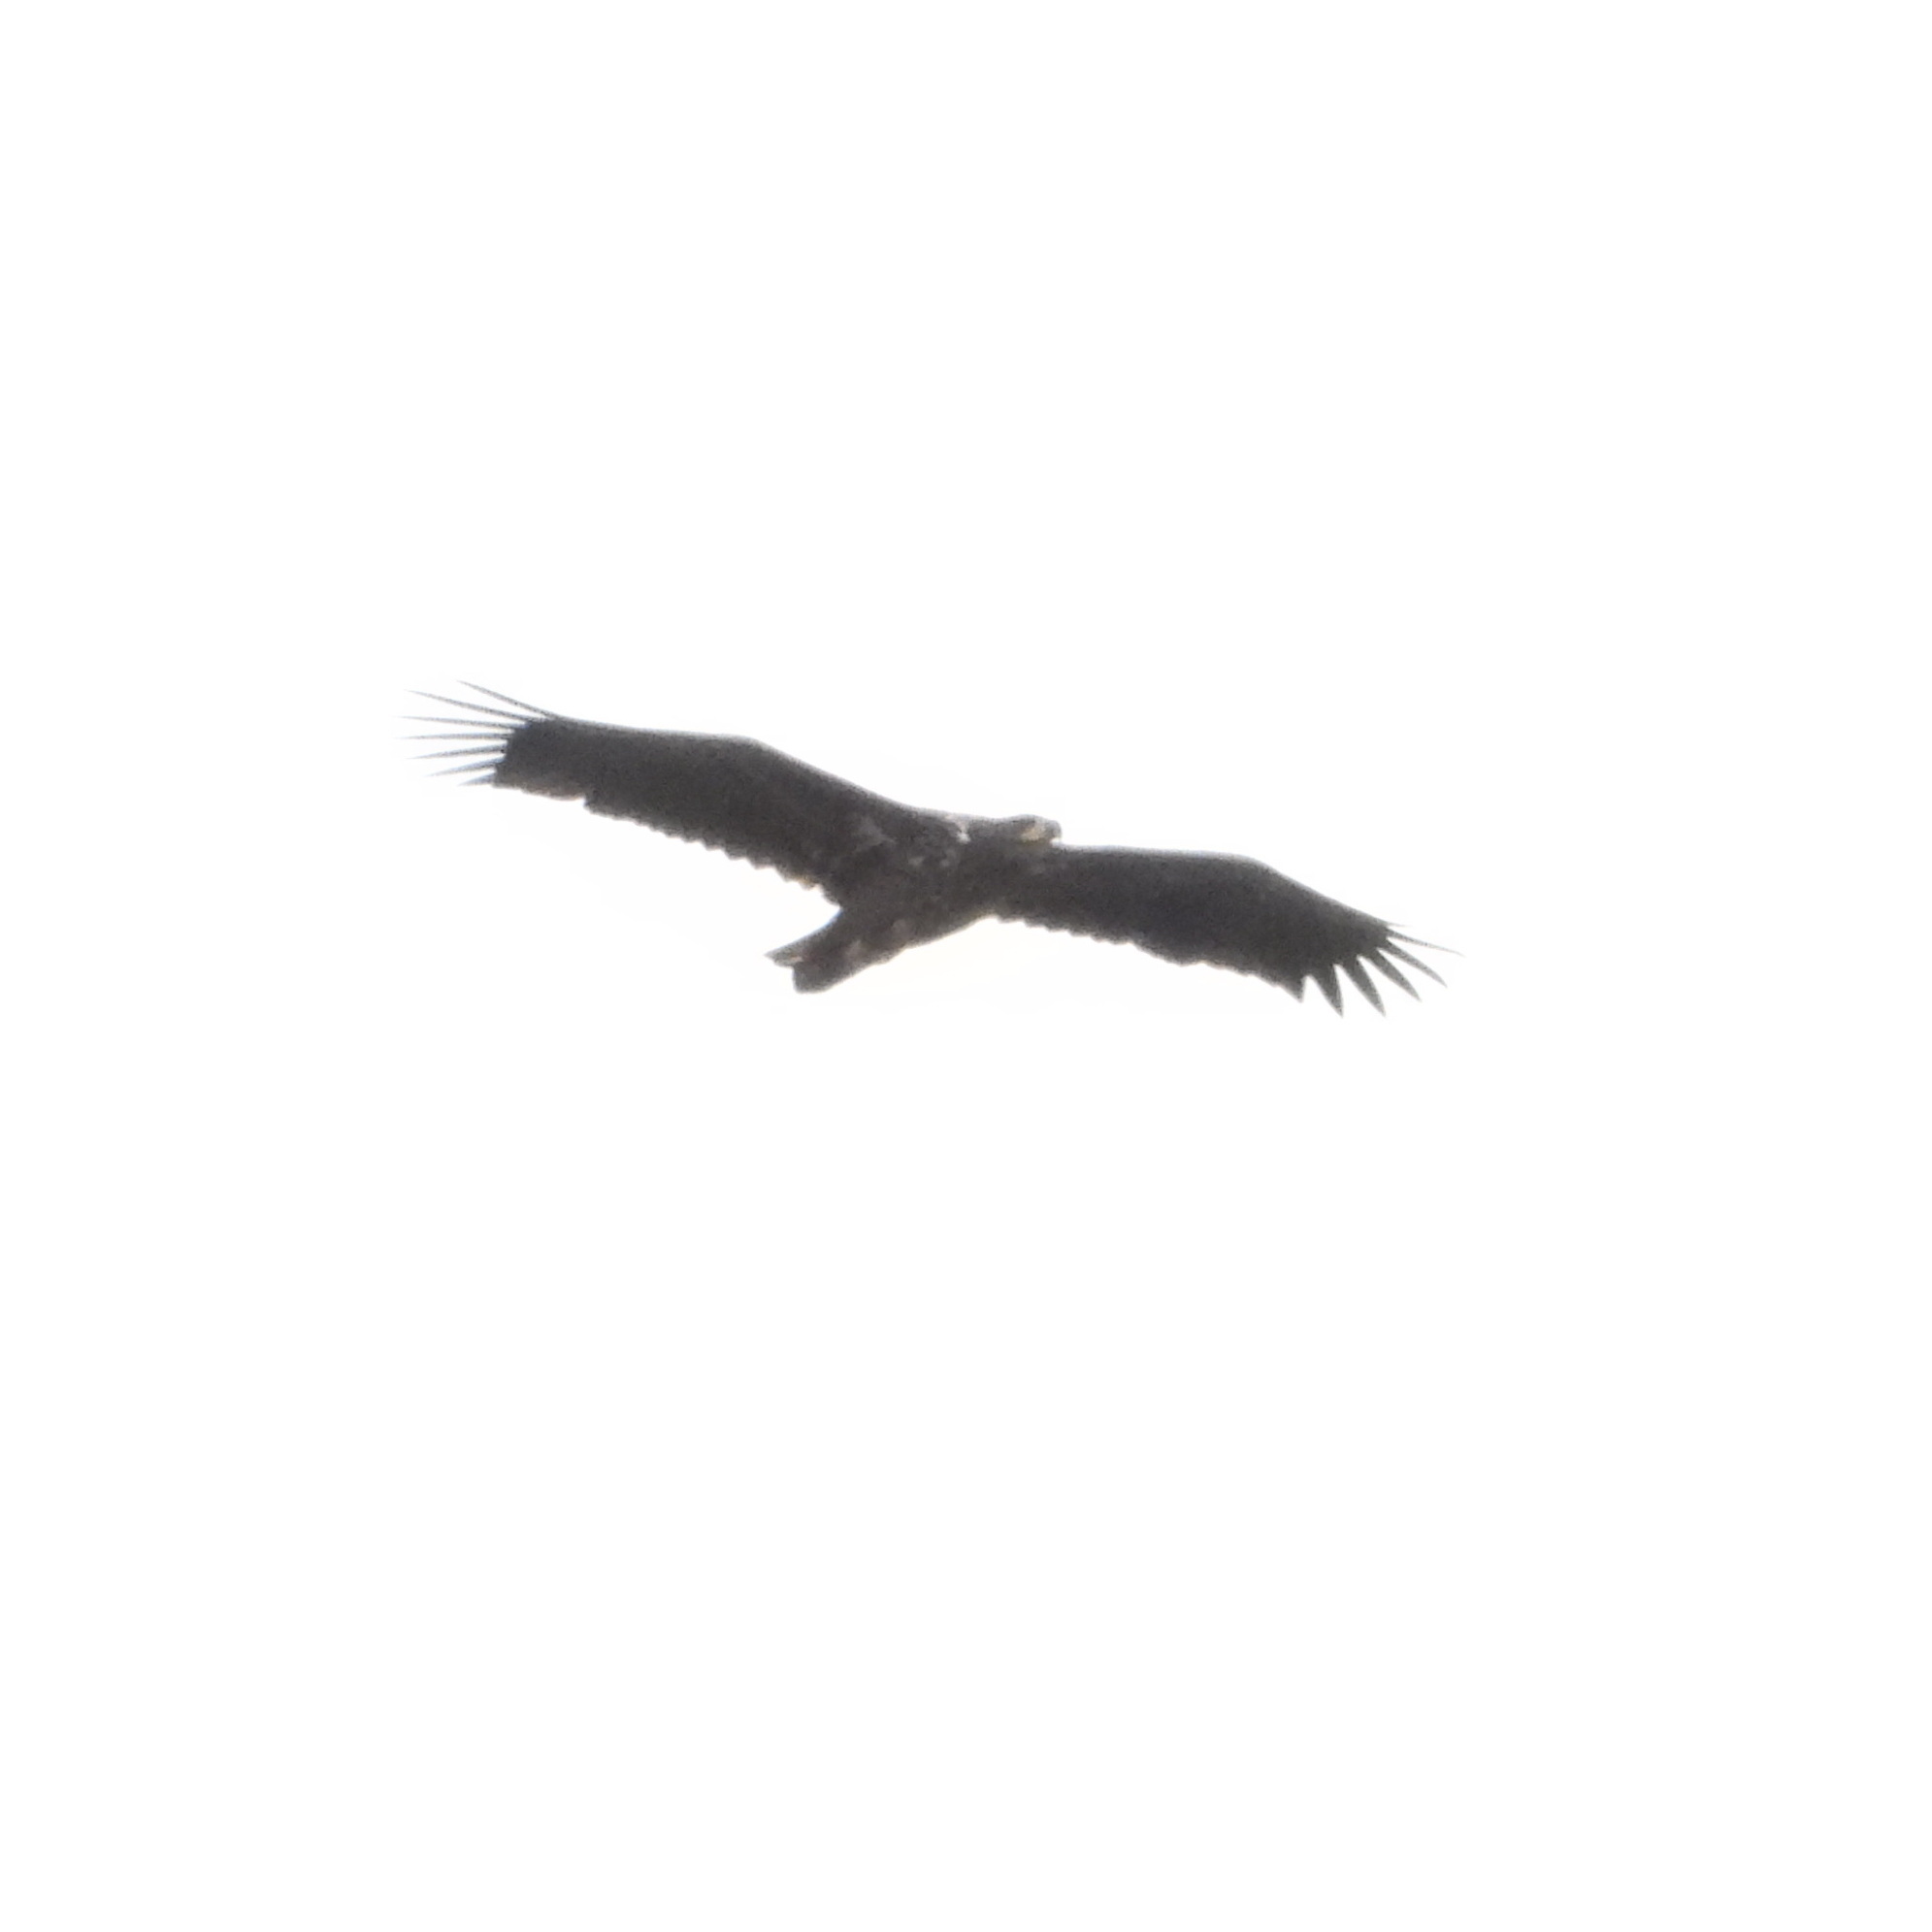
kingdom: Animalia
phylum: Chordata
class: Aves
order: Accipitriformes
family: Accipitridae
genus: Haliaeetus
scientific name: Haliaeetus albicilla
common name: White-tailed eagle
